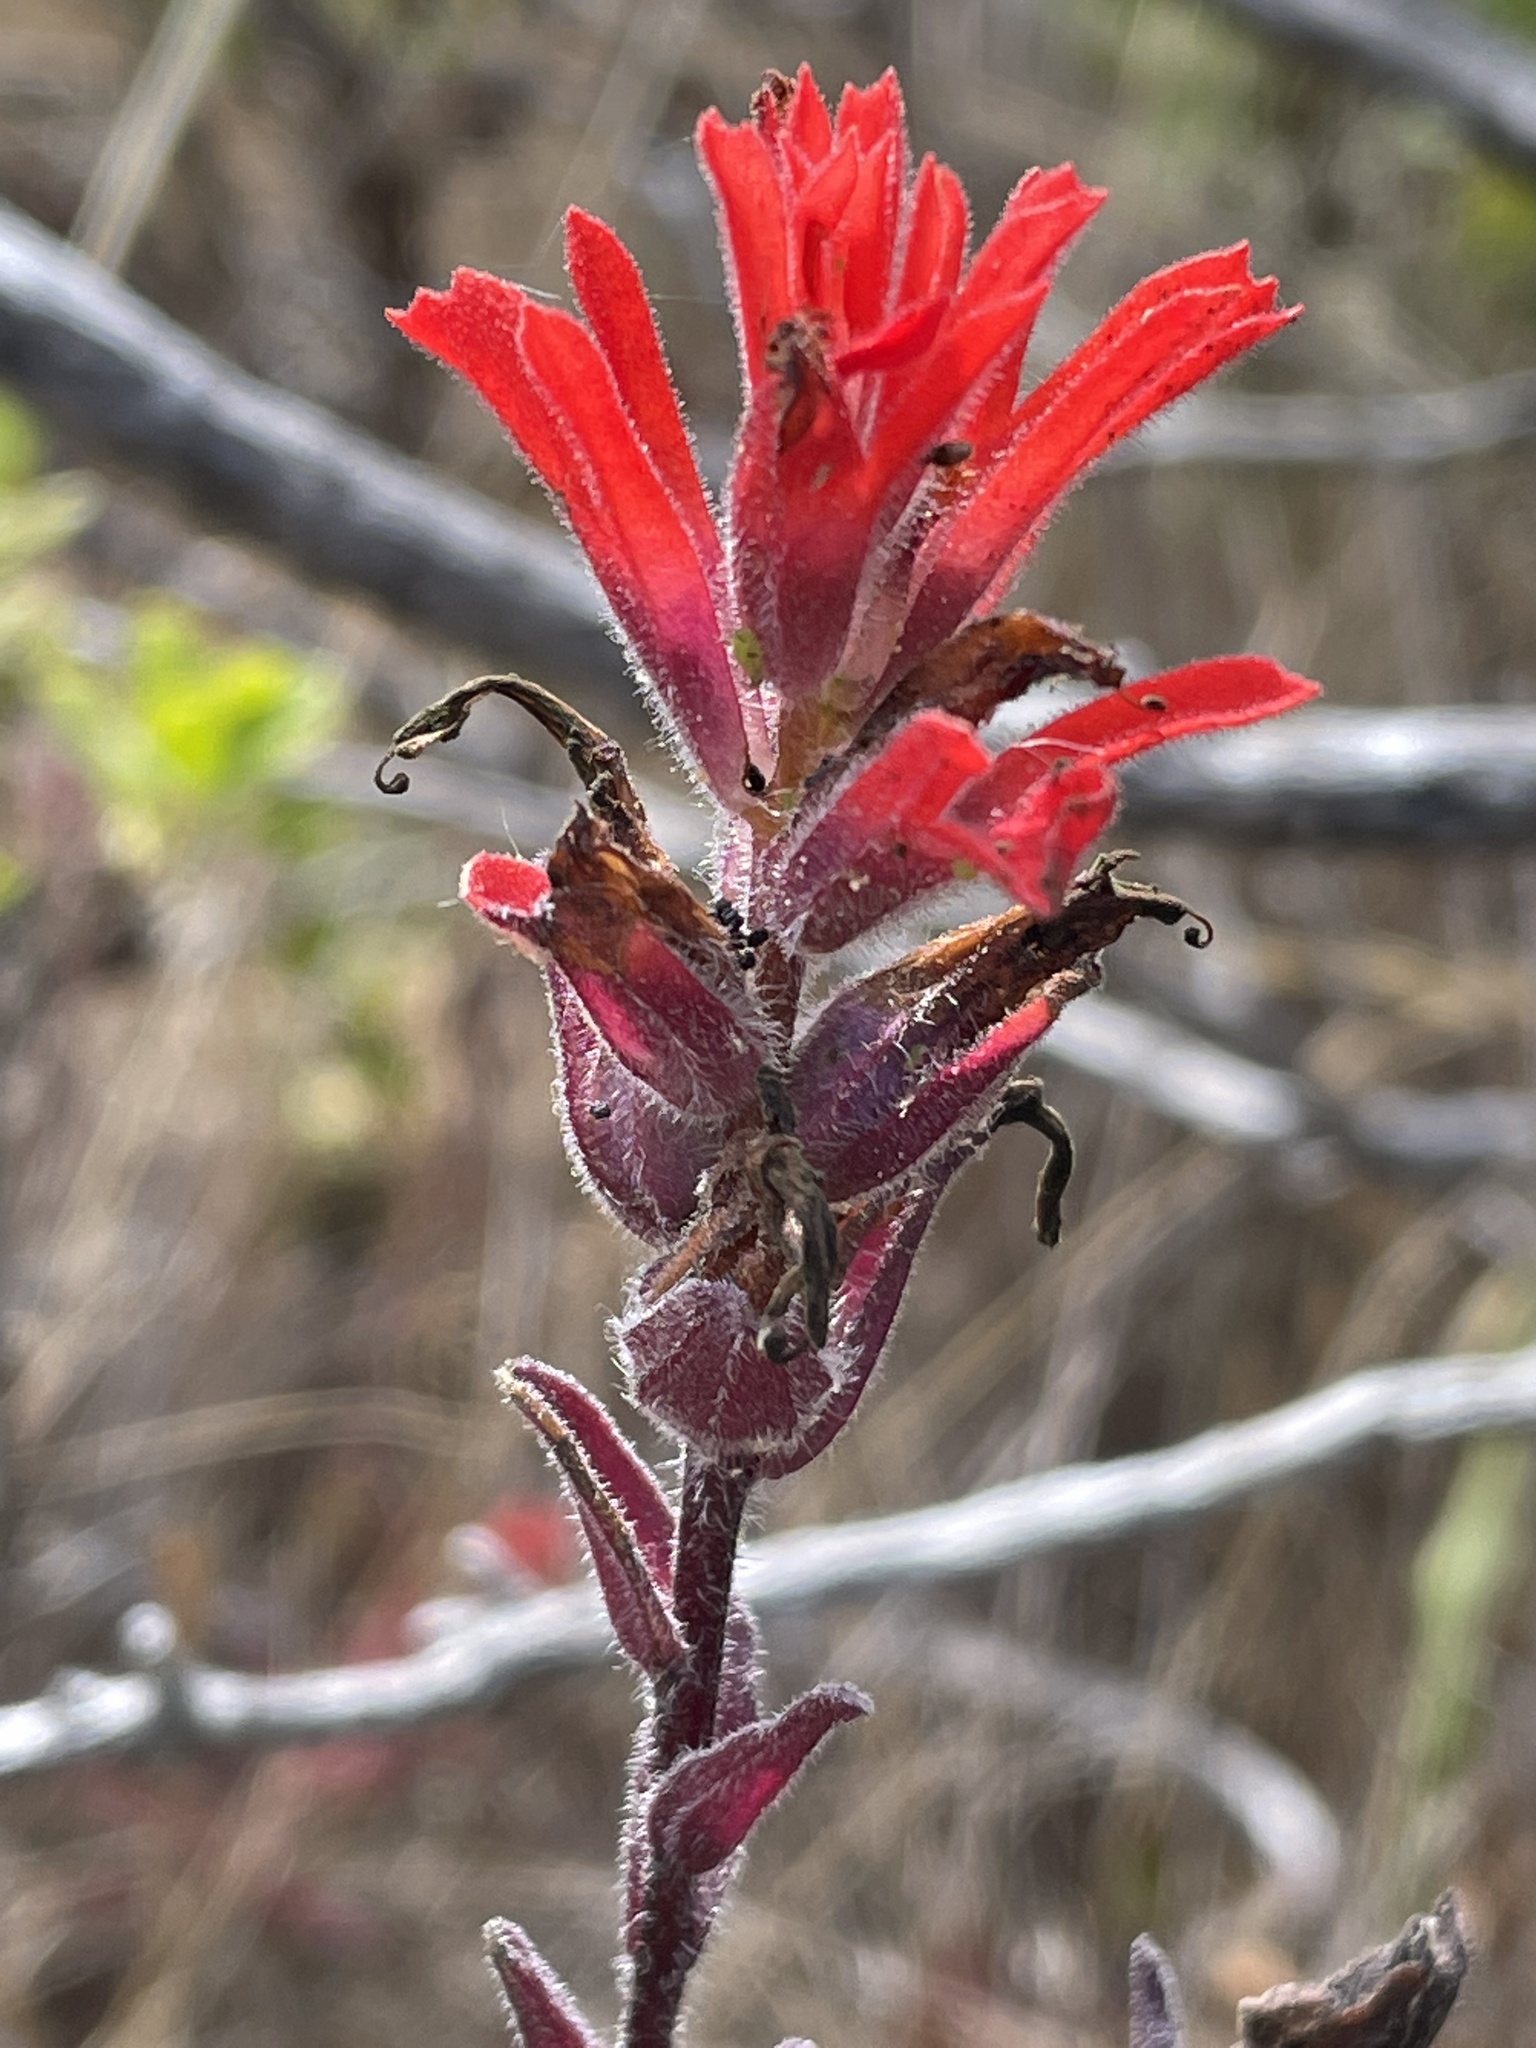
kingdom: Plantae
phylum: Tracheophyta
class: Magnoliopsida
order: Lamiales
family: Orobanchaceae
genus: Castilleja
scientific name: Castilleja affinis
